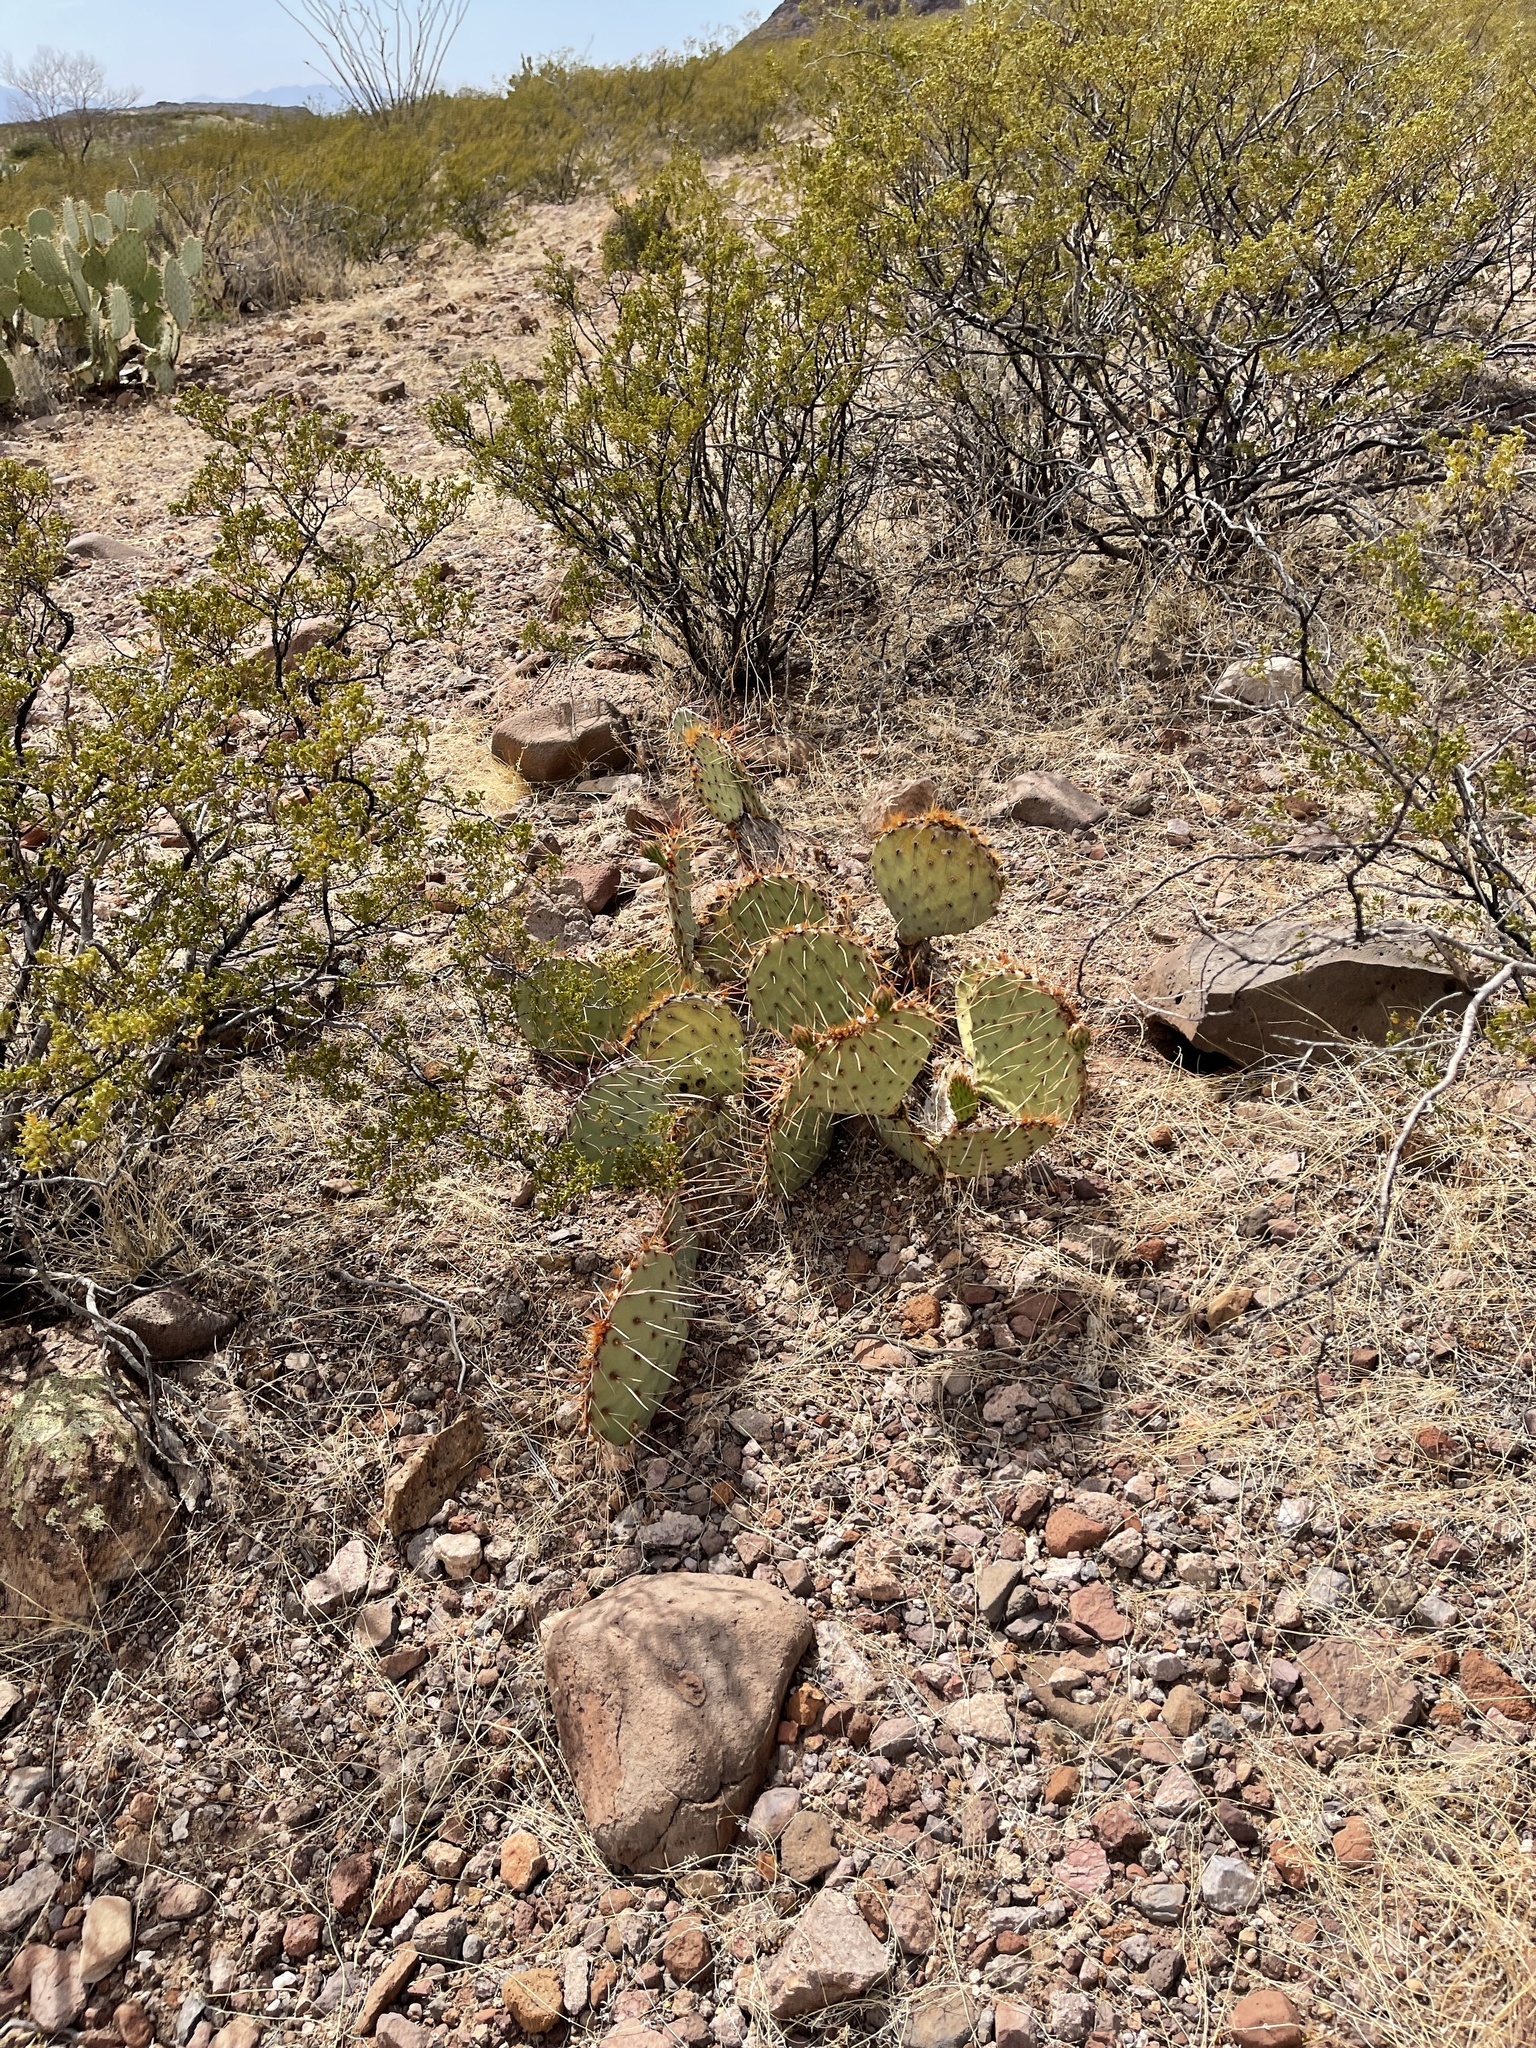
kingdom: Plantae
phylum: Tracheophyta
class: Magnoliopsida
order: Caryophyllales
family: Cactaceae
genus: Opuntia
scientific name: Opuntia phaeacantha
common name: New mexico prickly-pear
